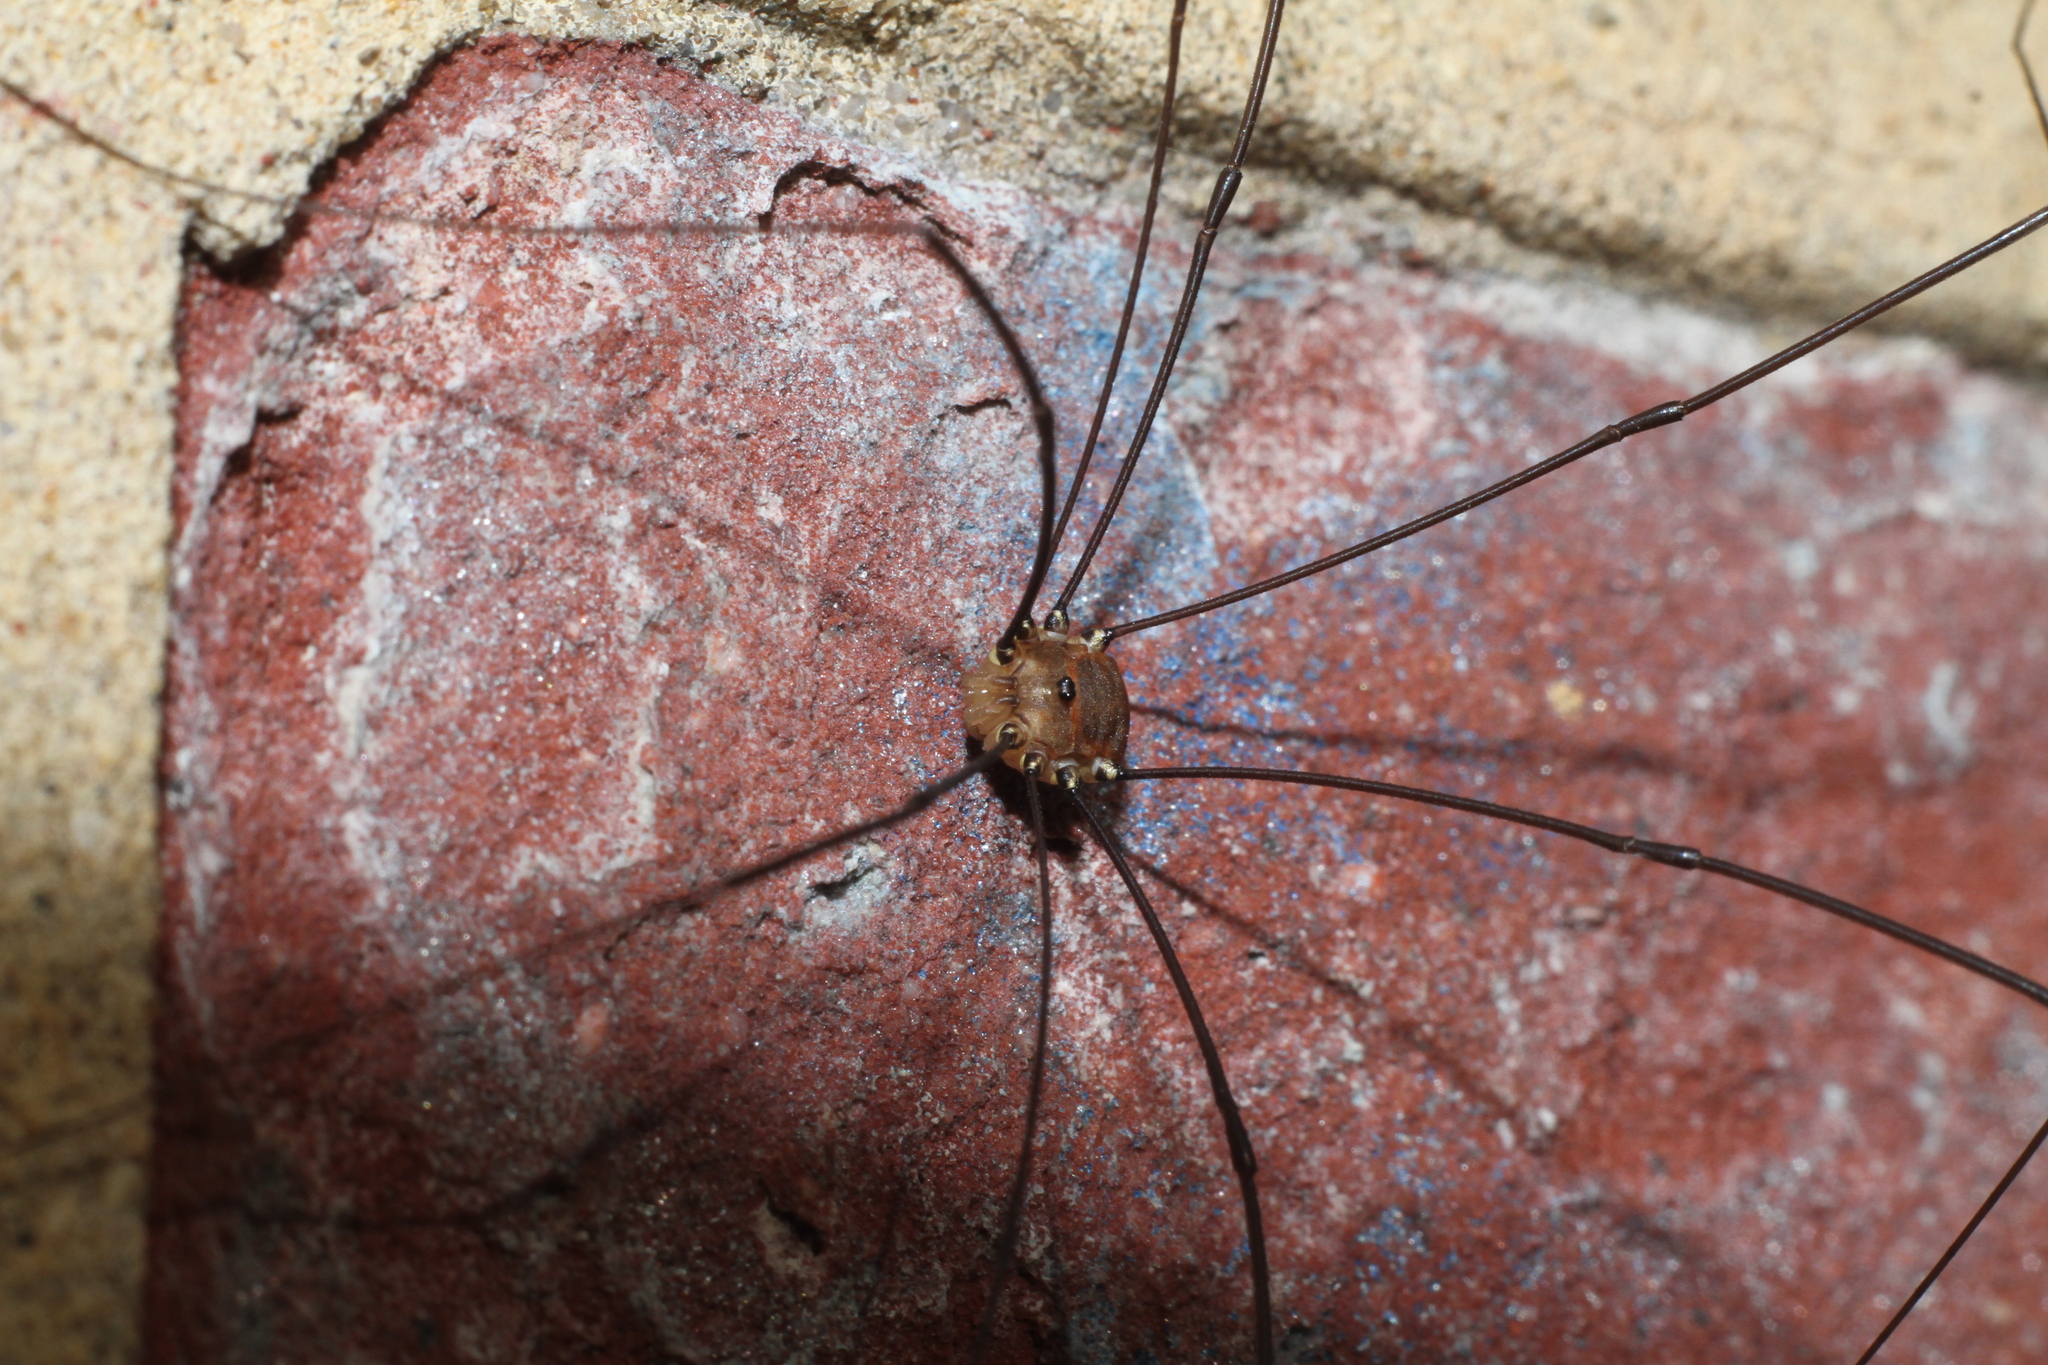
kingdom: Animalia
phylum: Arthropoda
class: Arachnida
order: Opiliones
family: Sclerosomatidae
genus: Leiobunum
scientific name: Leiobunum rotundum
